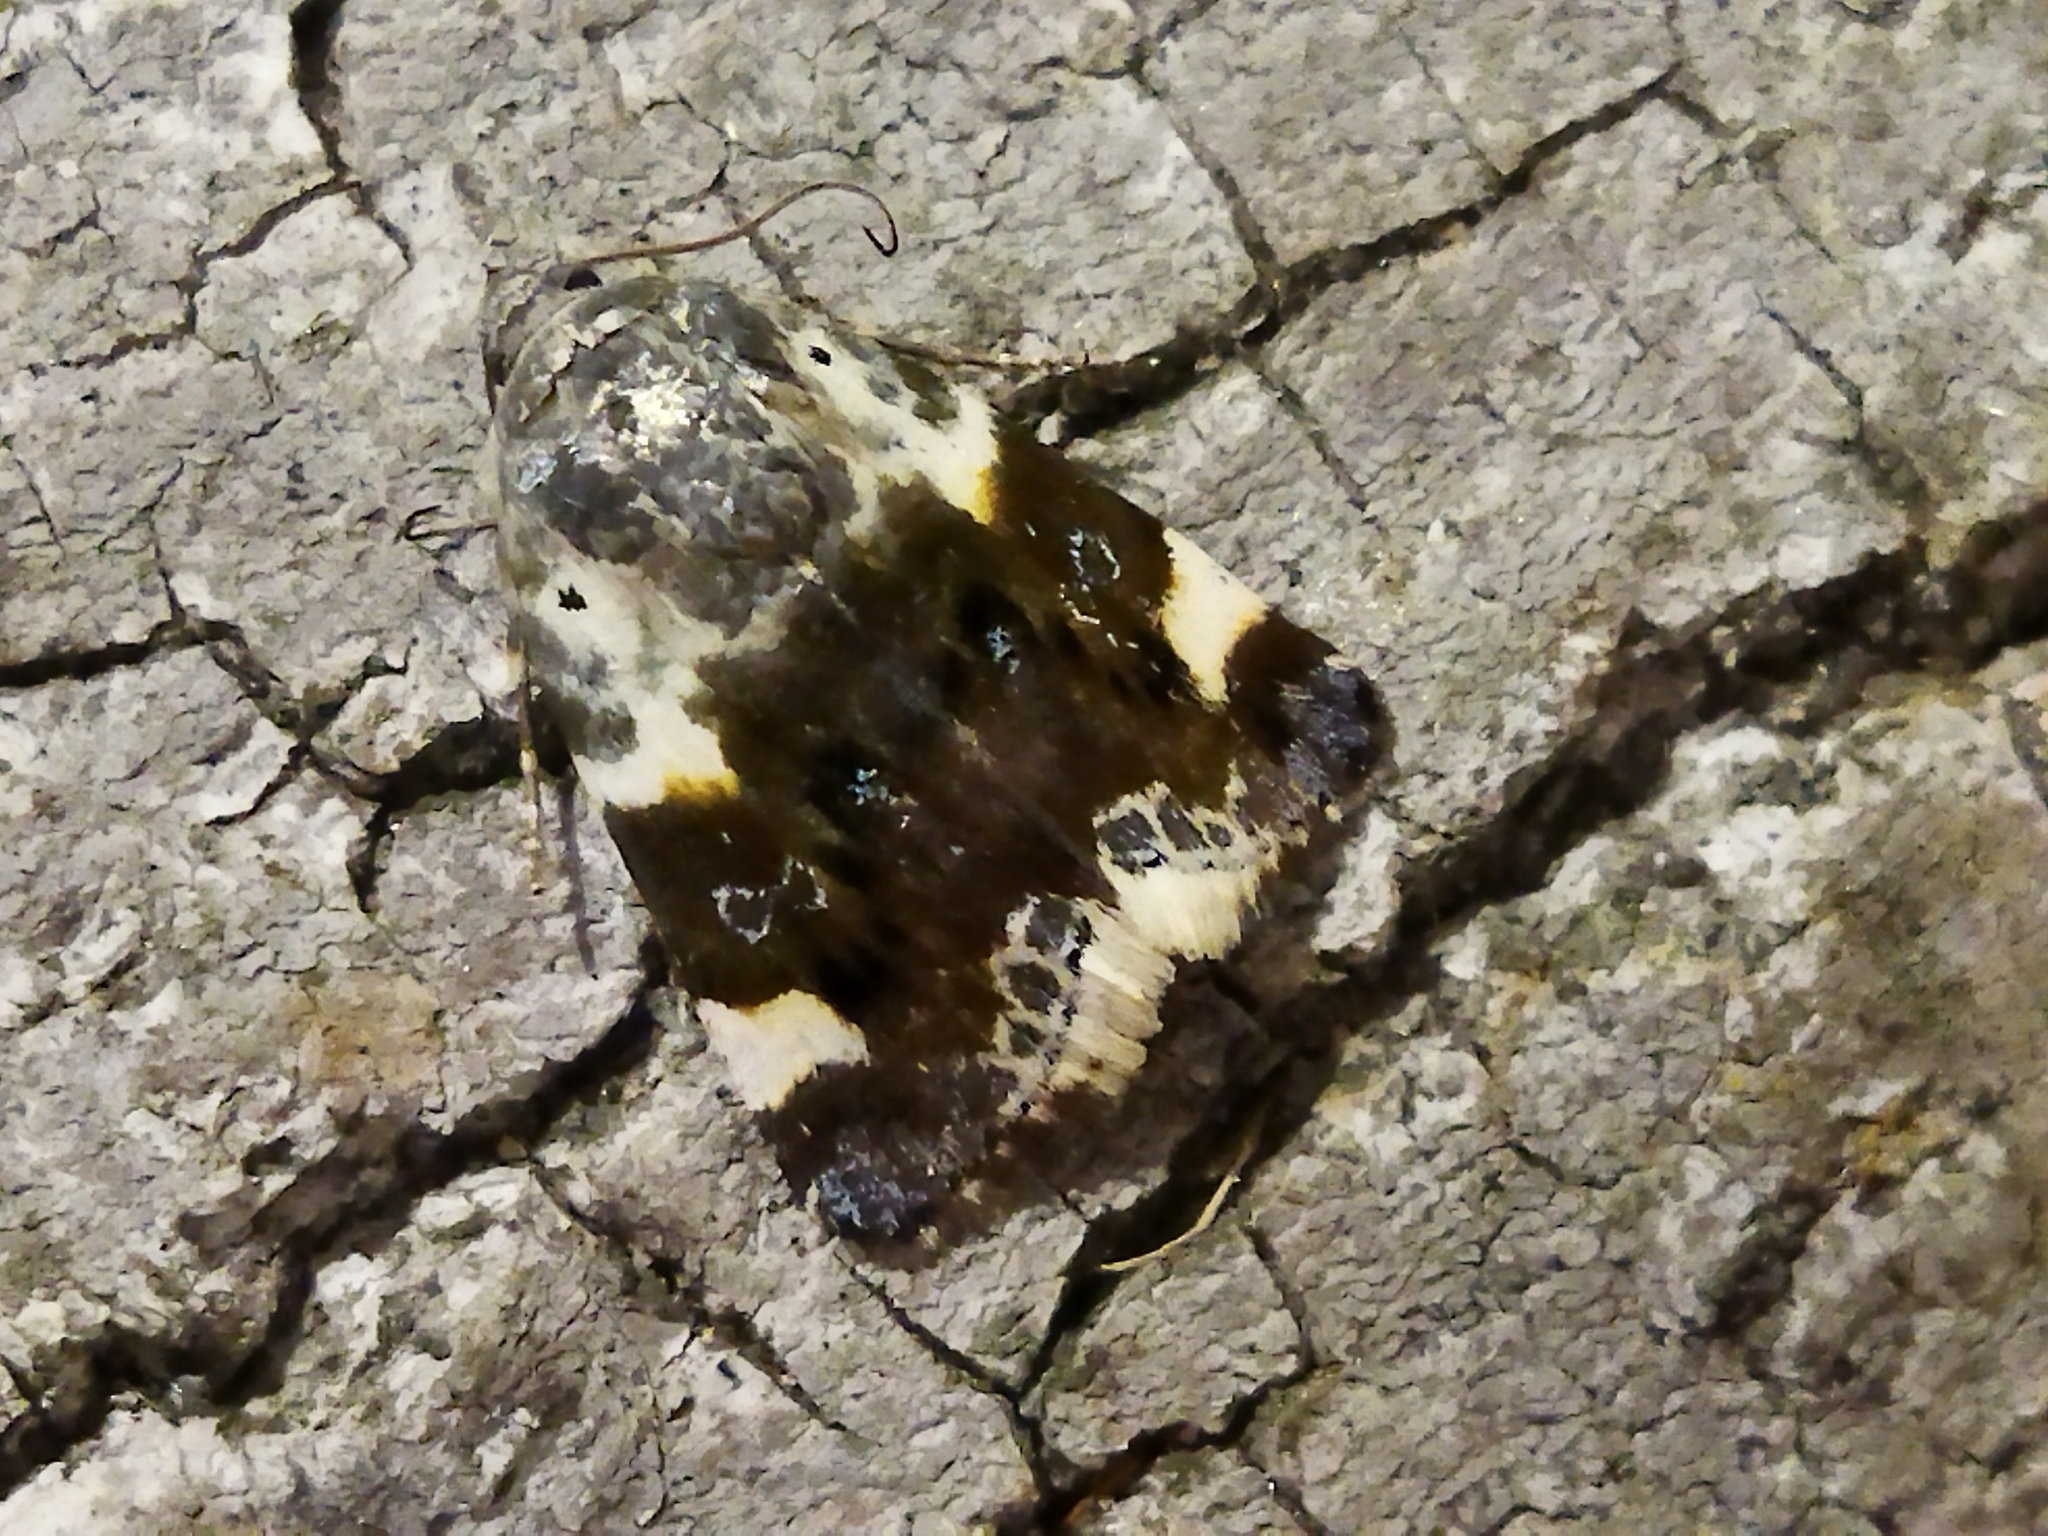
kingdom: Animalia
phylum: Arthropoda
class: Insecta
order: Lepidoptera
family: Noctuidae
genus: Acontia
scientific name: Acontia lucida
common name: Pale shoulder
